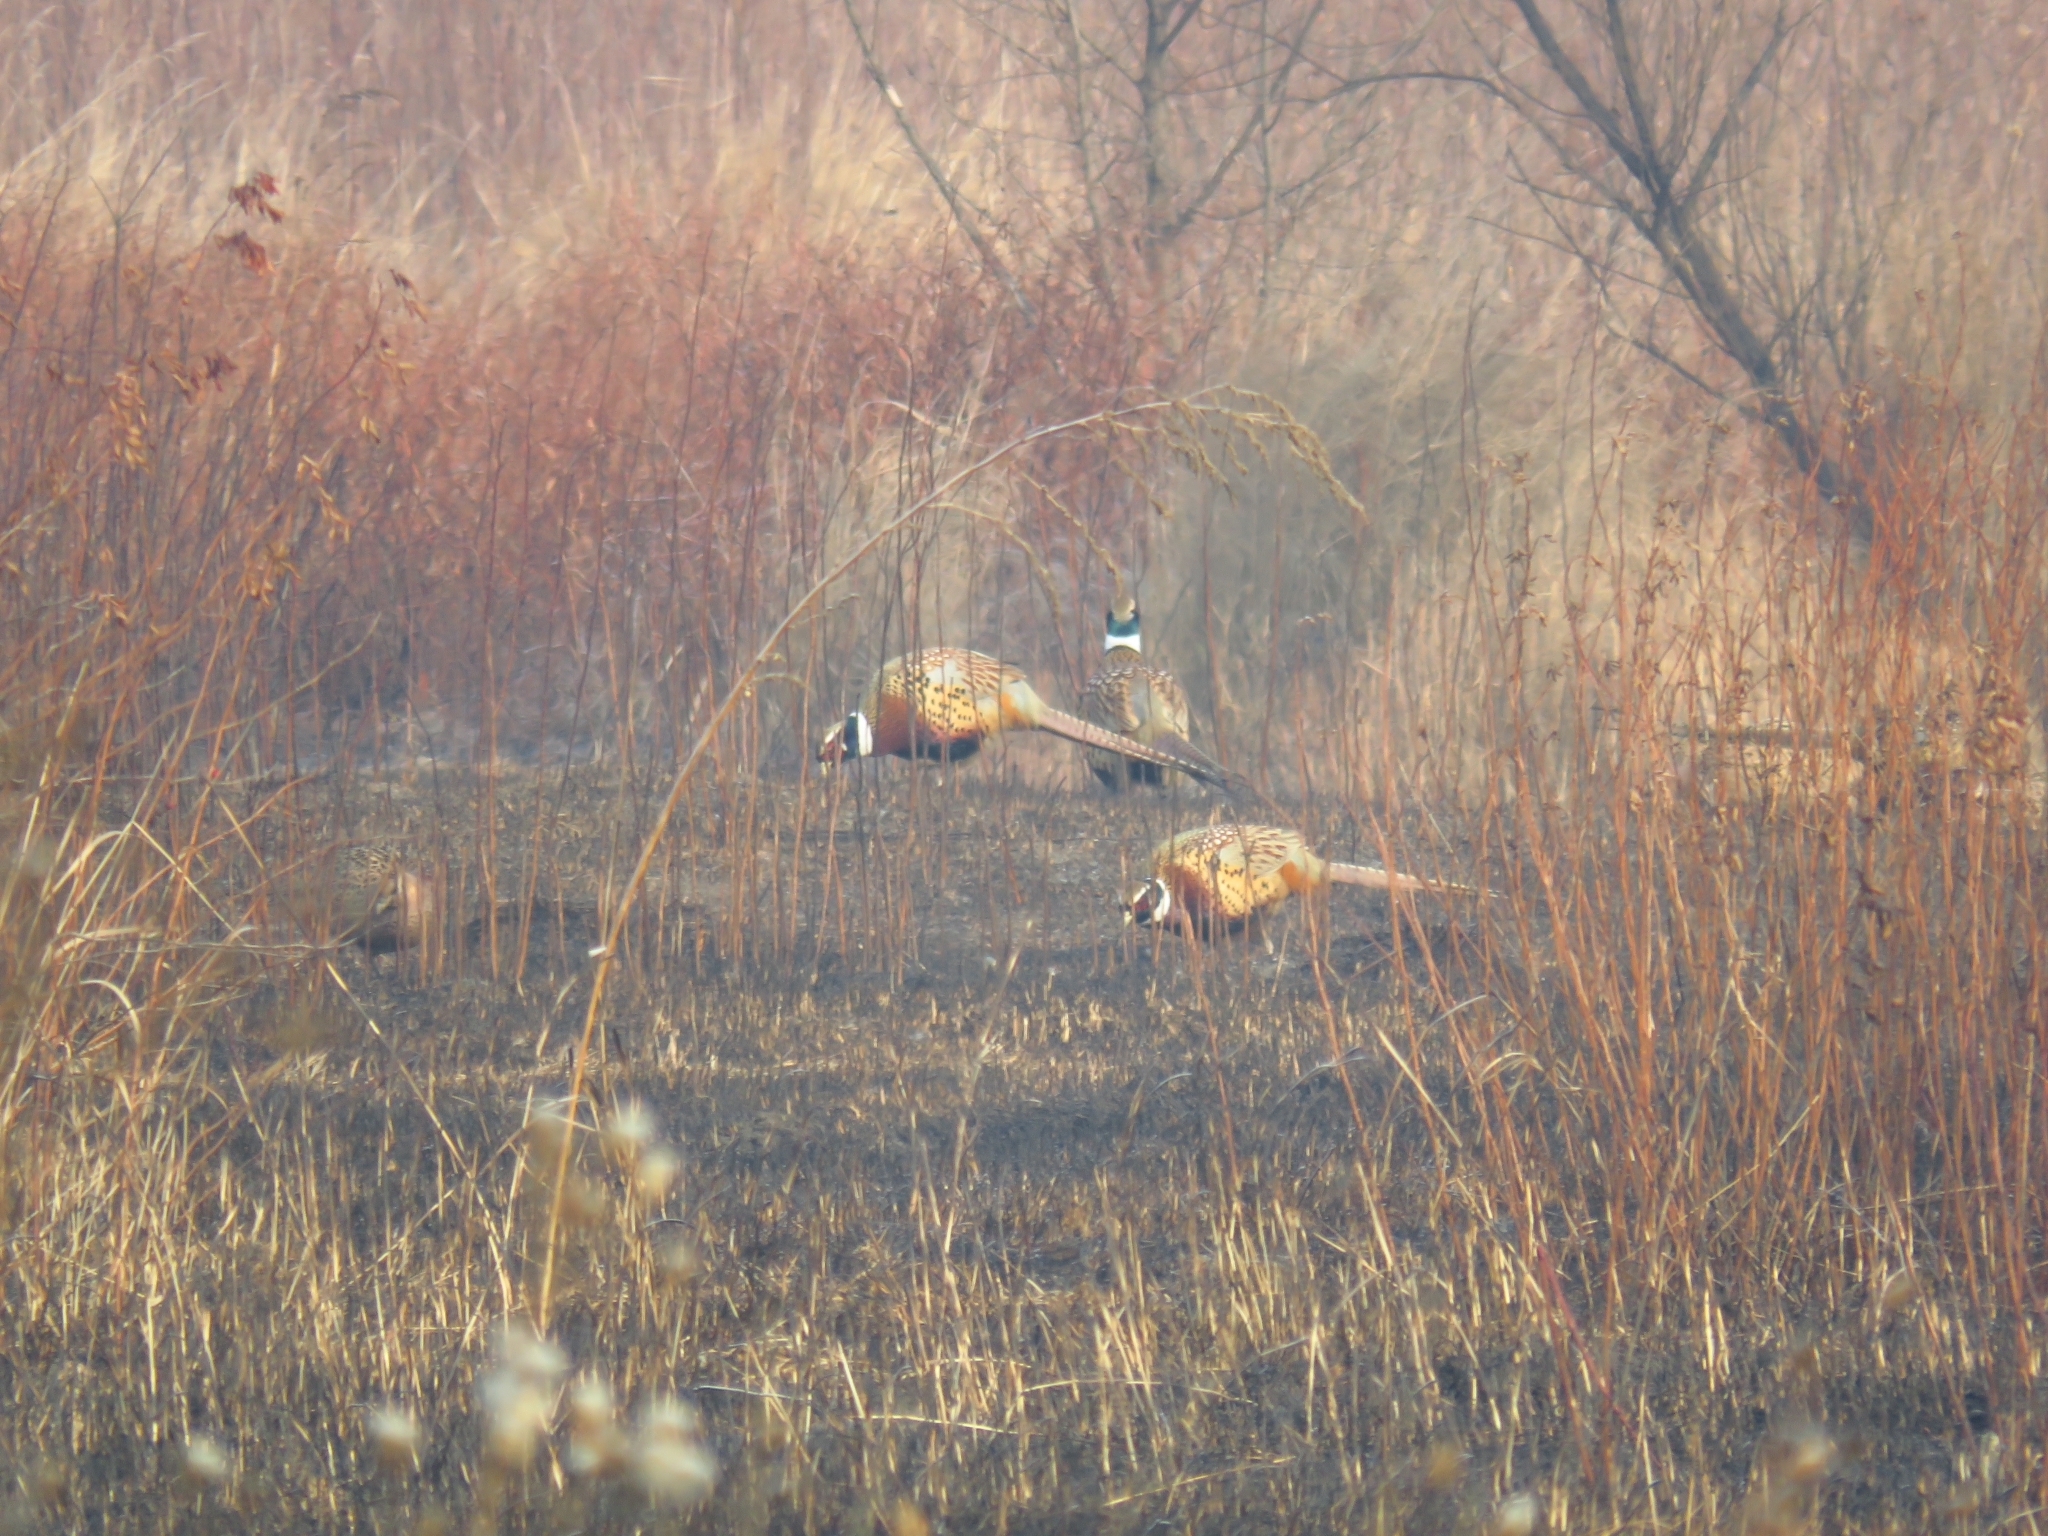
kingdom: Animalia
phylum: Chordata
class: Aves
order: Galliformes
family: Phasianidae
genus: Phasianus
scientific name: Phasianus colchicus
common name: Common pheasant
